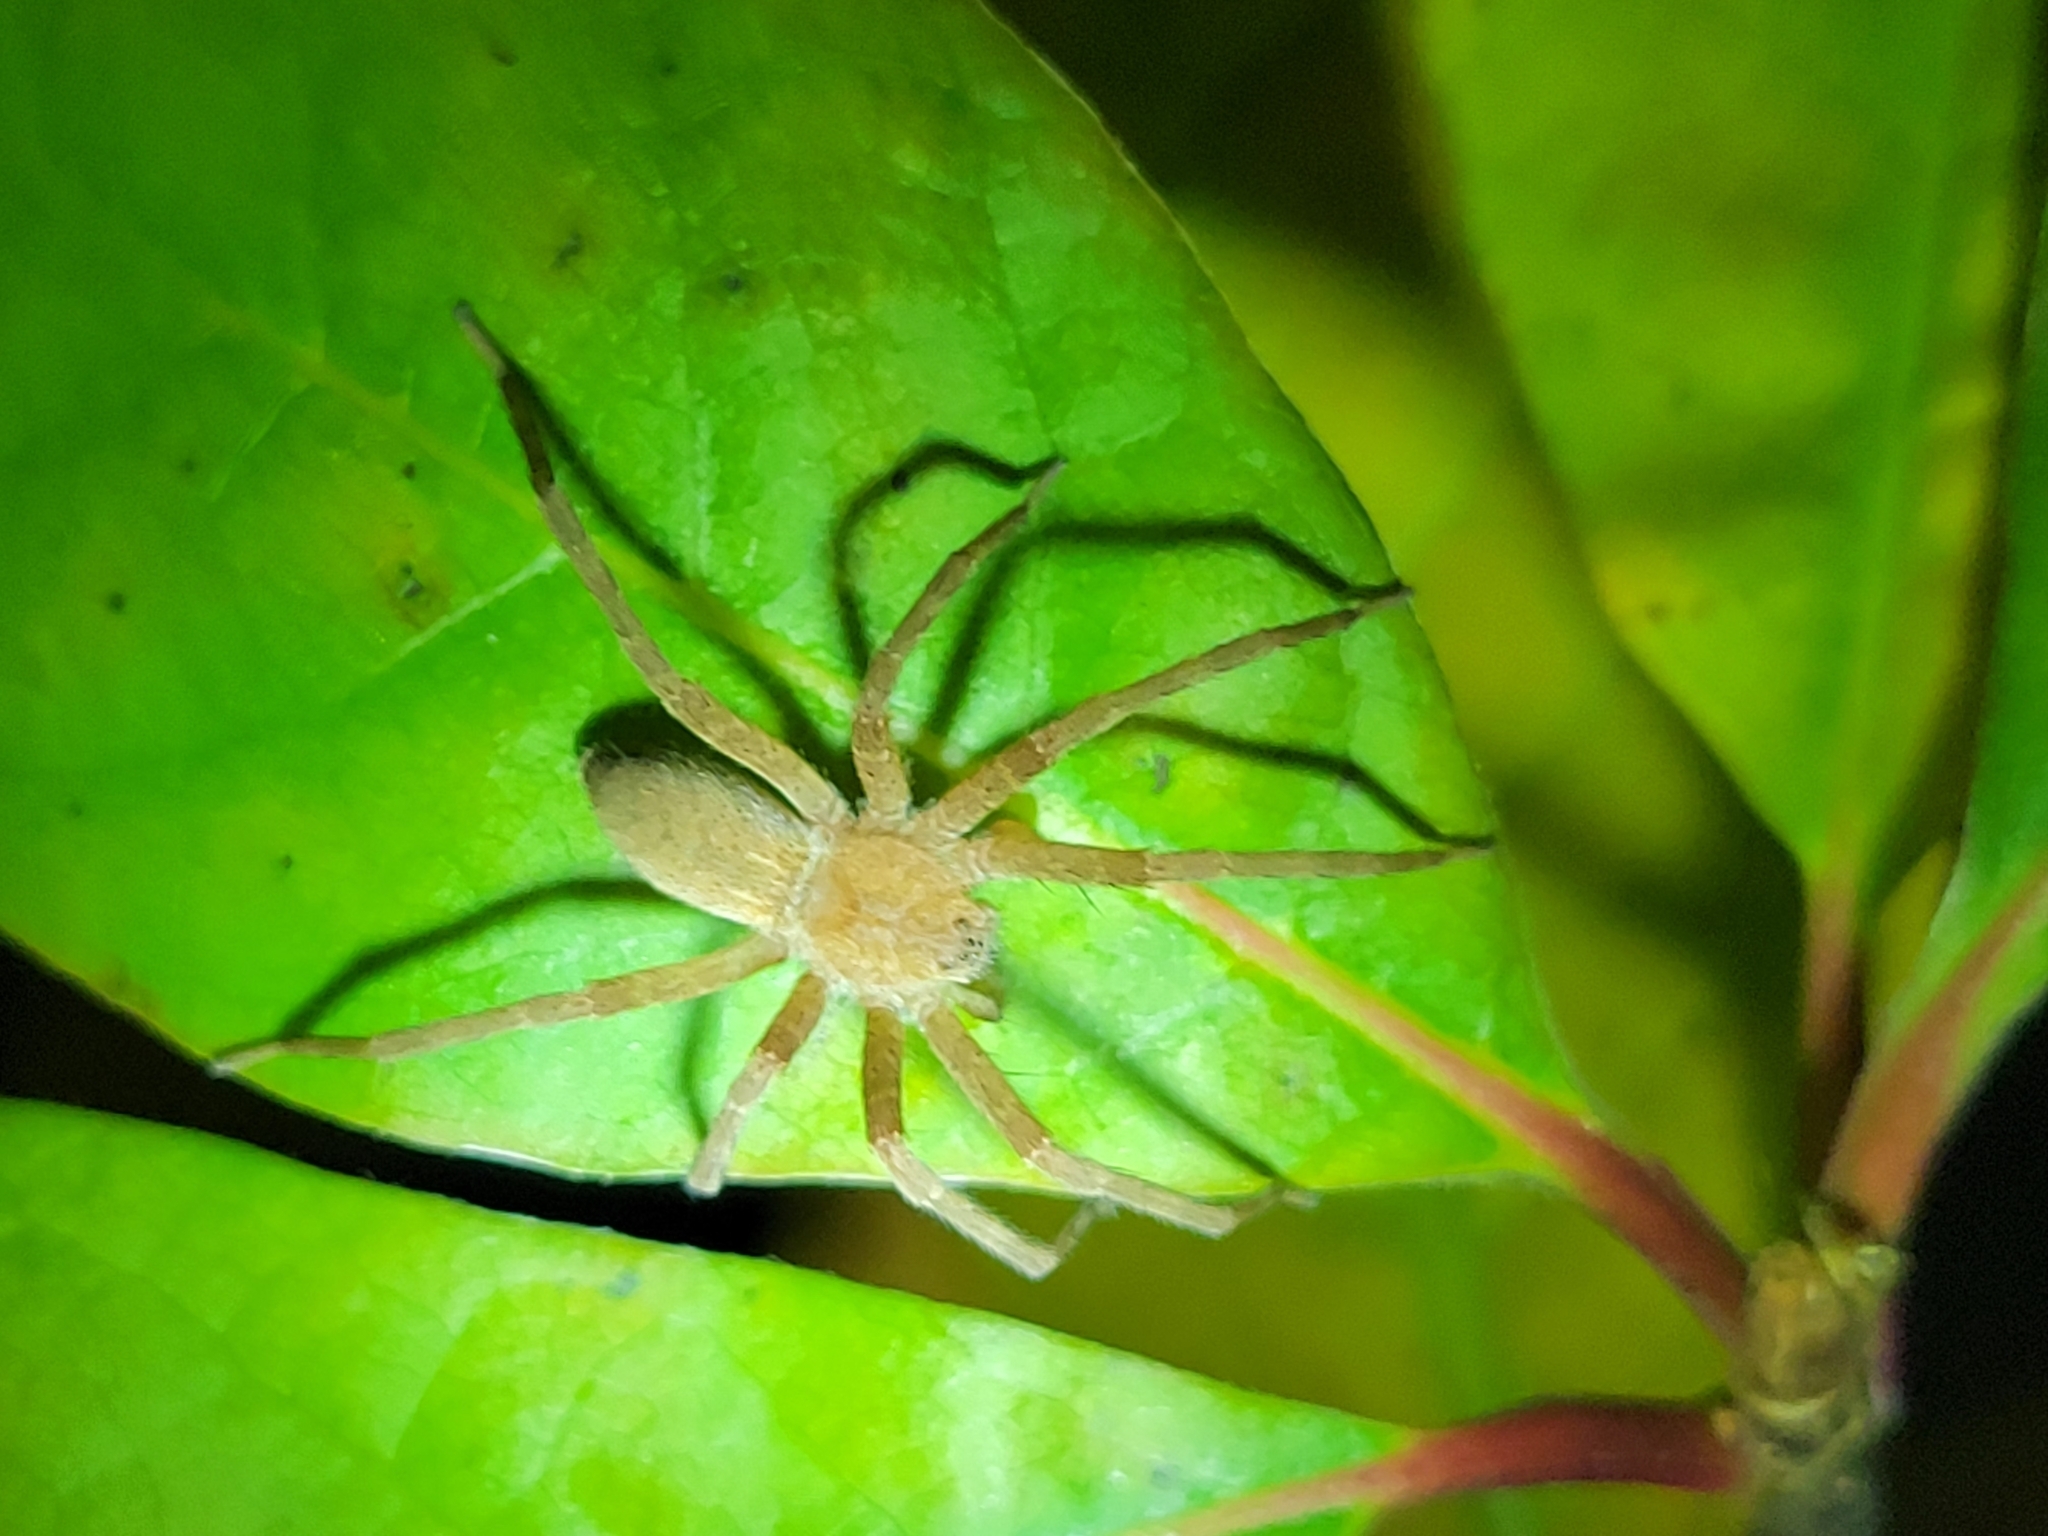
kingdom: Animalia
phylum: Arthropoda
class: Arachnida
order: Araneae
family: Pisauridae
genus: Pisaurina
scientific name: Pisaurina mira
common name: American nursery web spider
